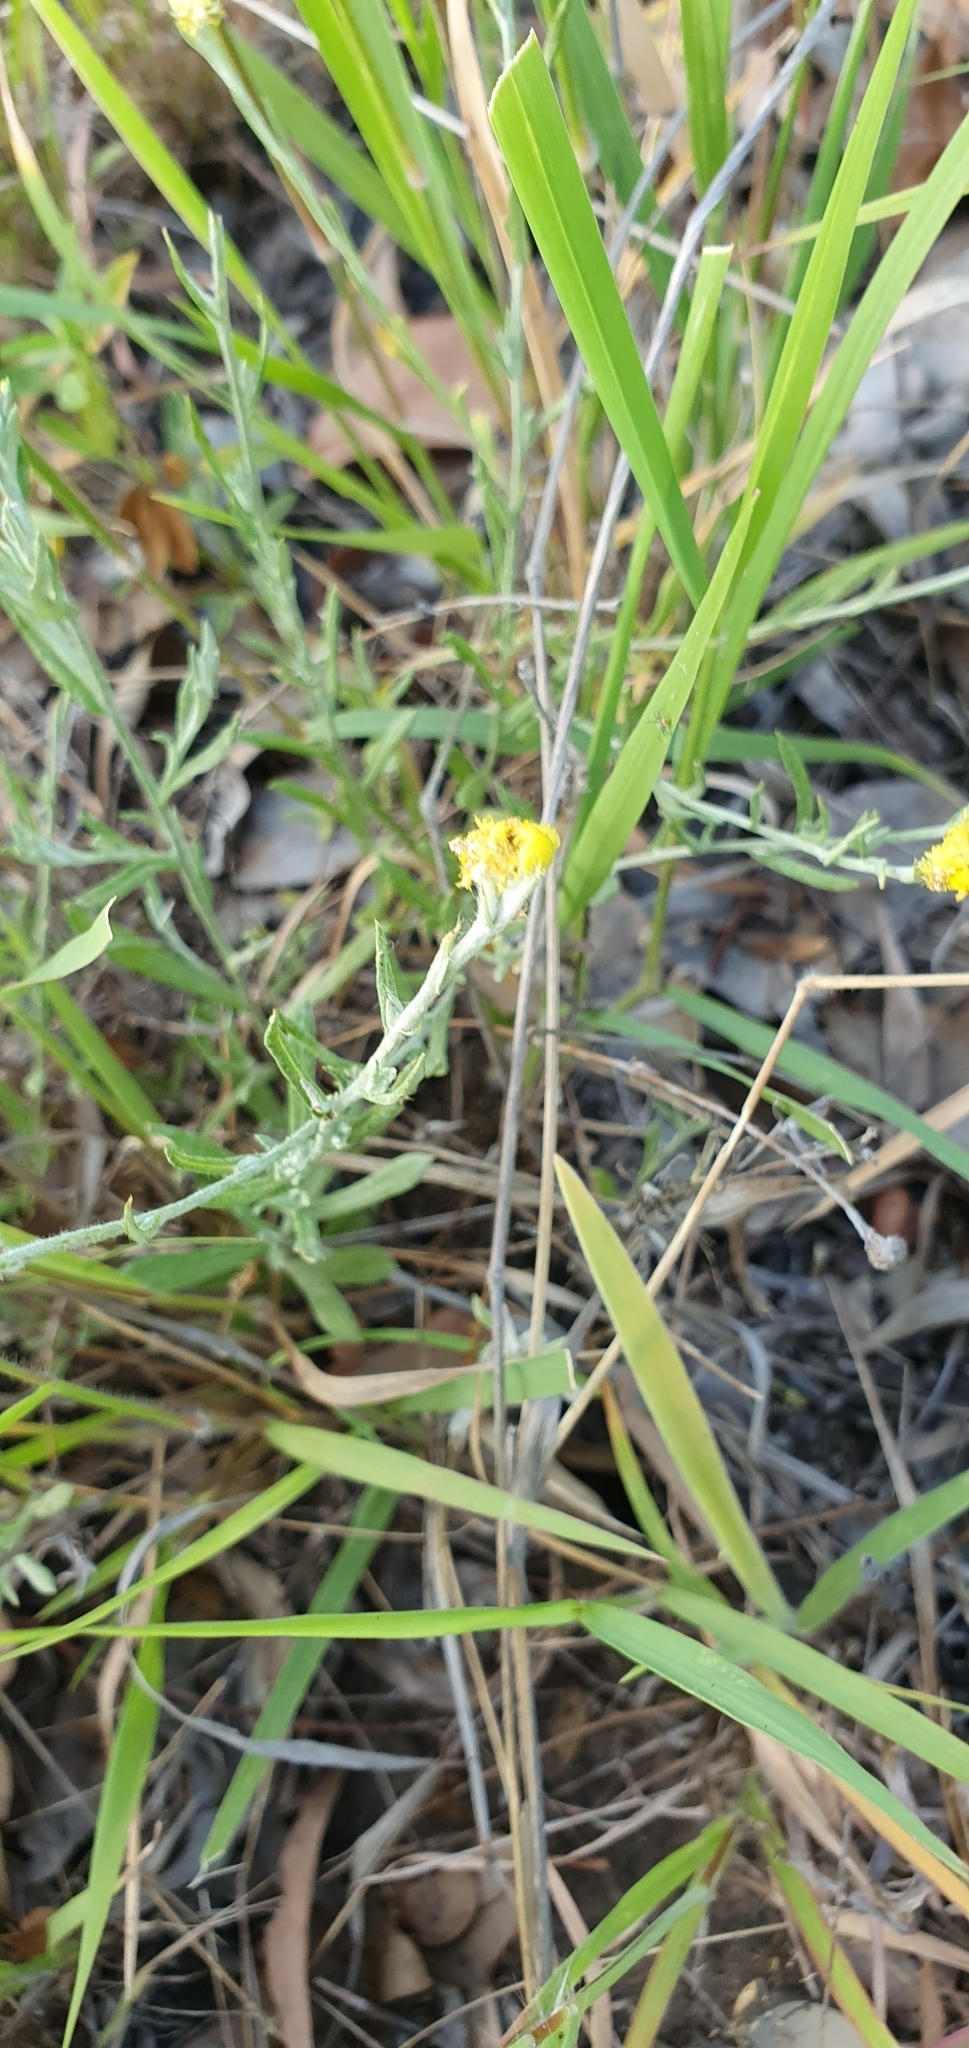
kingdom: Plantae
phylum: Tracheophyta
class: Magnoliopsida
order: Asterales
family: Asteraceae
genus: Chrysocephalum
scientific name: Chrysocephalum apiculatum
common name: Common everlasting
